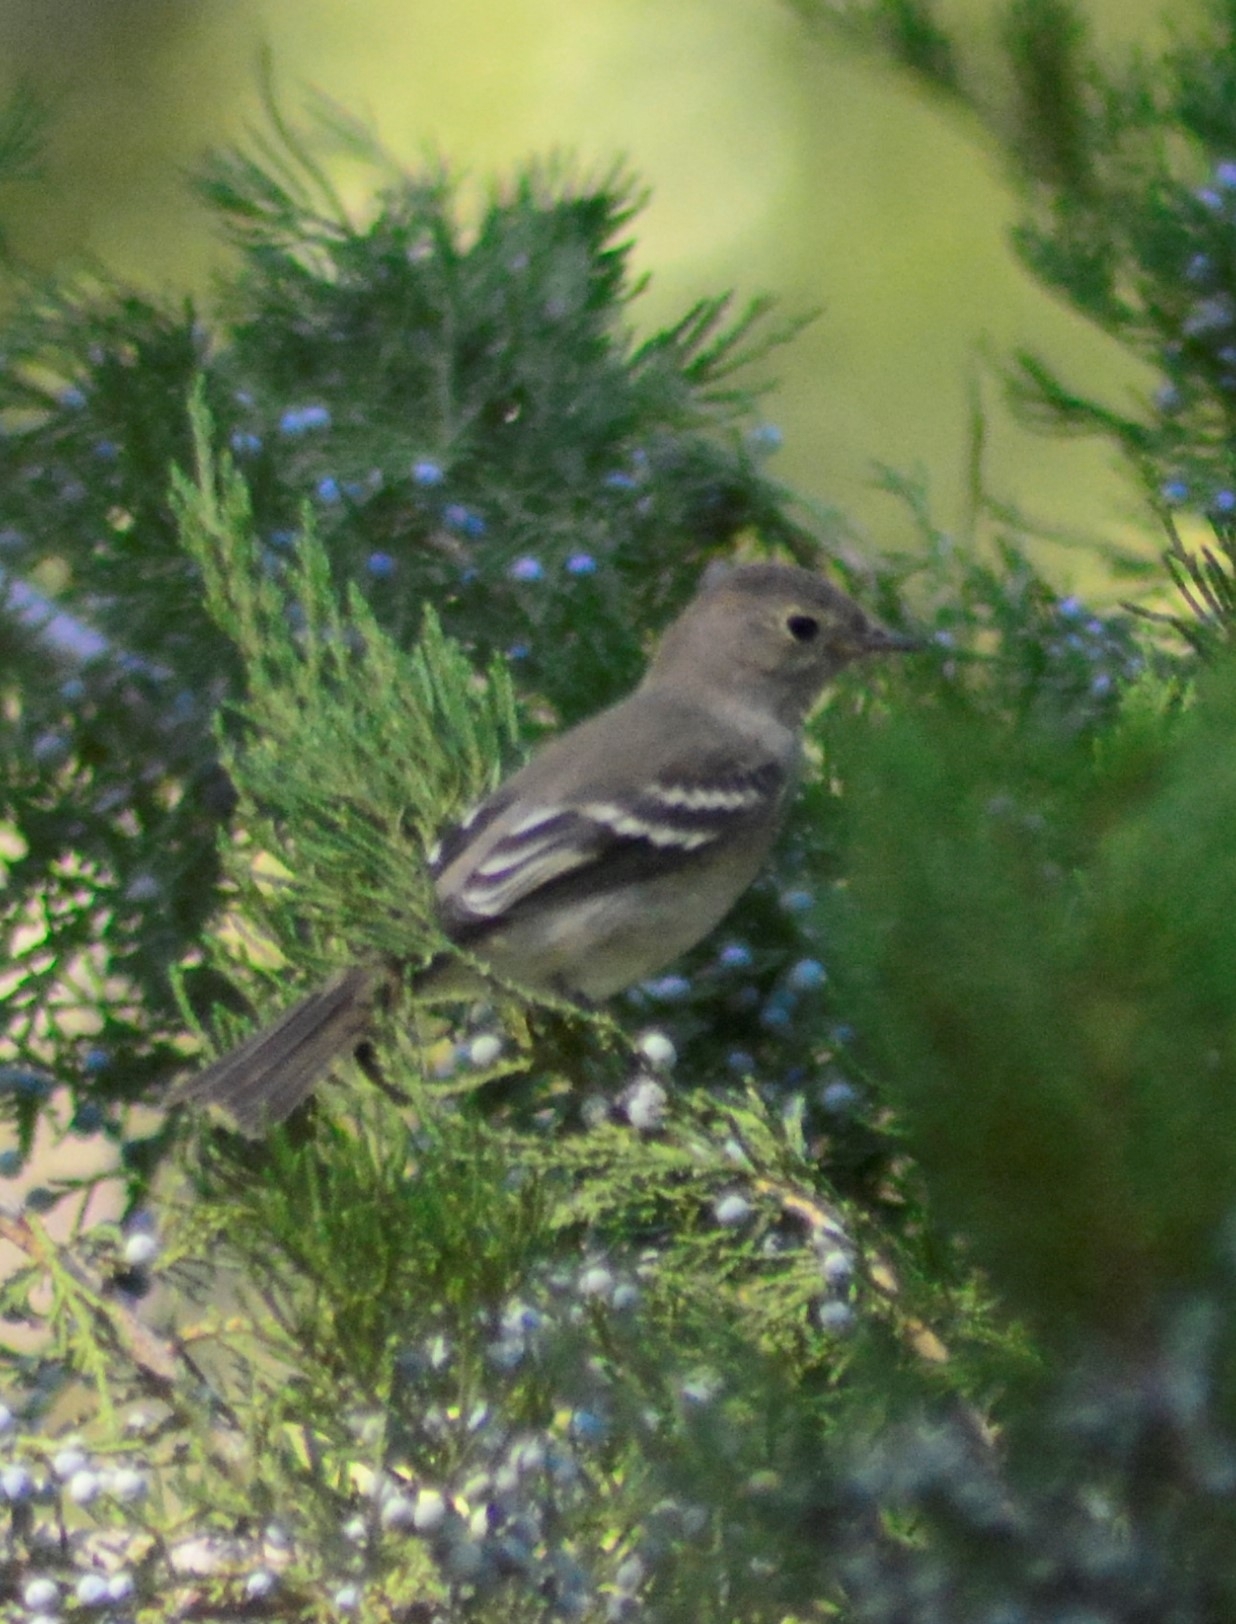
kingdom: Animalia
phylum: Chordata
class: Aves
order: Passeriformes
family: Tyrannidae
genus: Elaenia
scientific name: Elaenia albiceps
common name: White-crested elaenia
